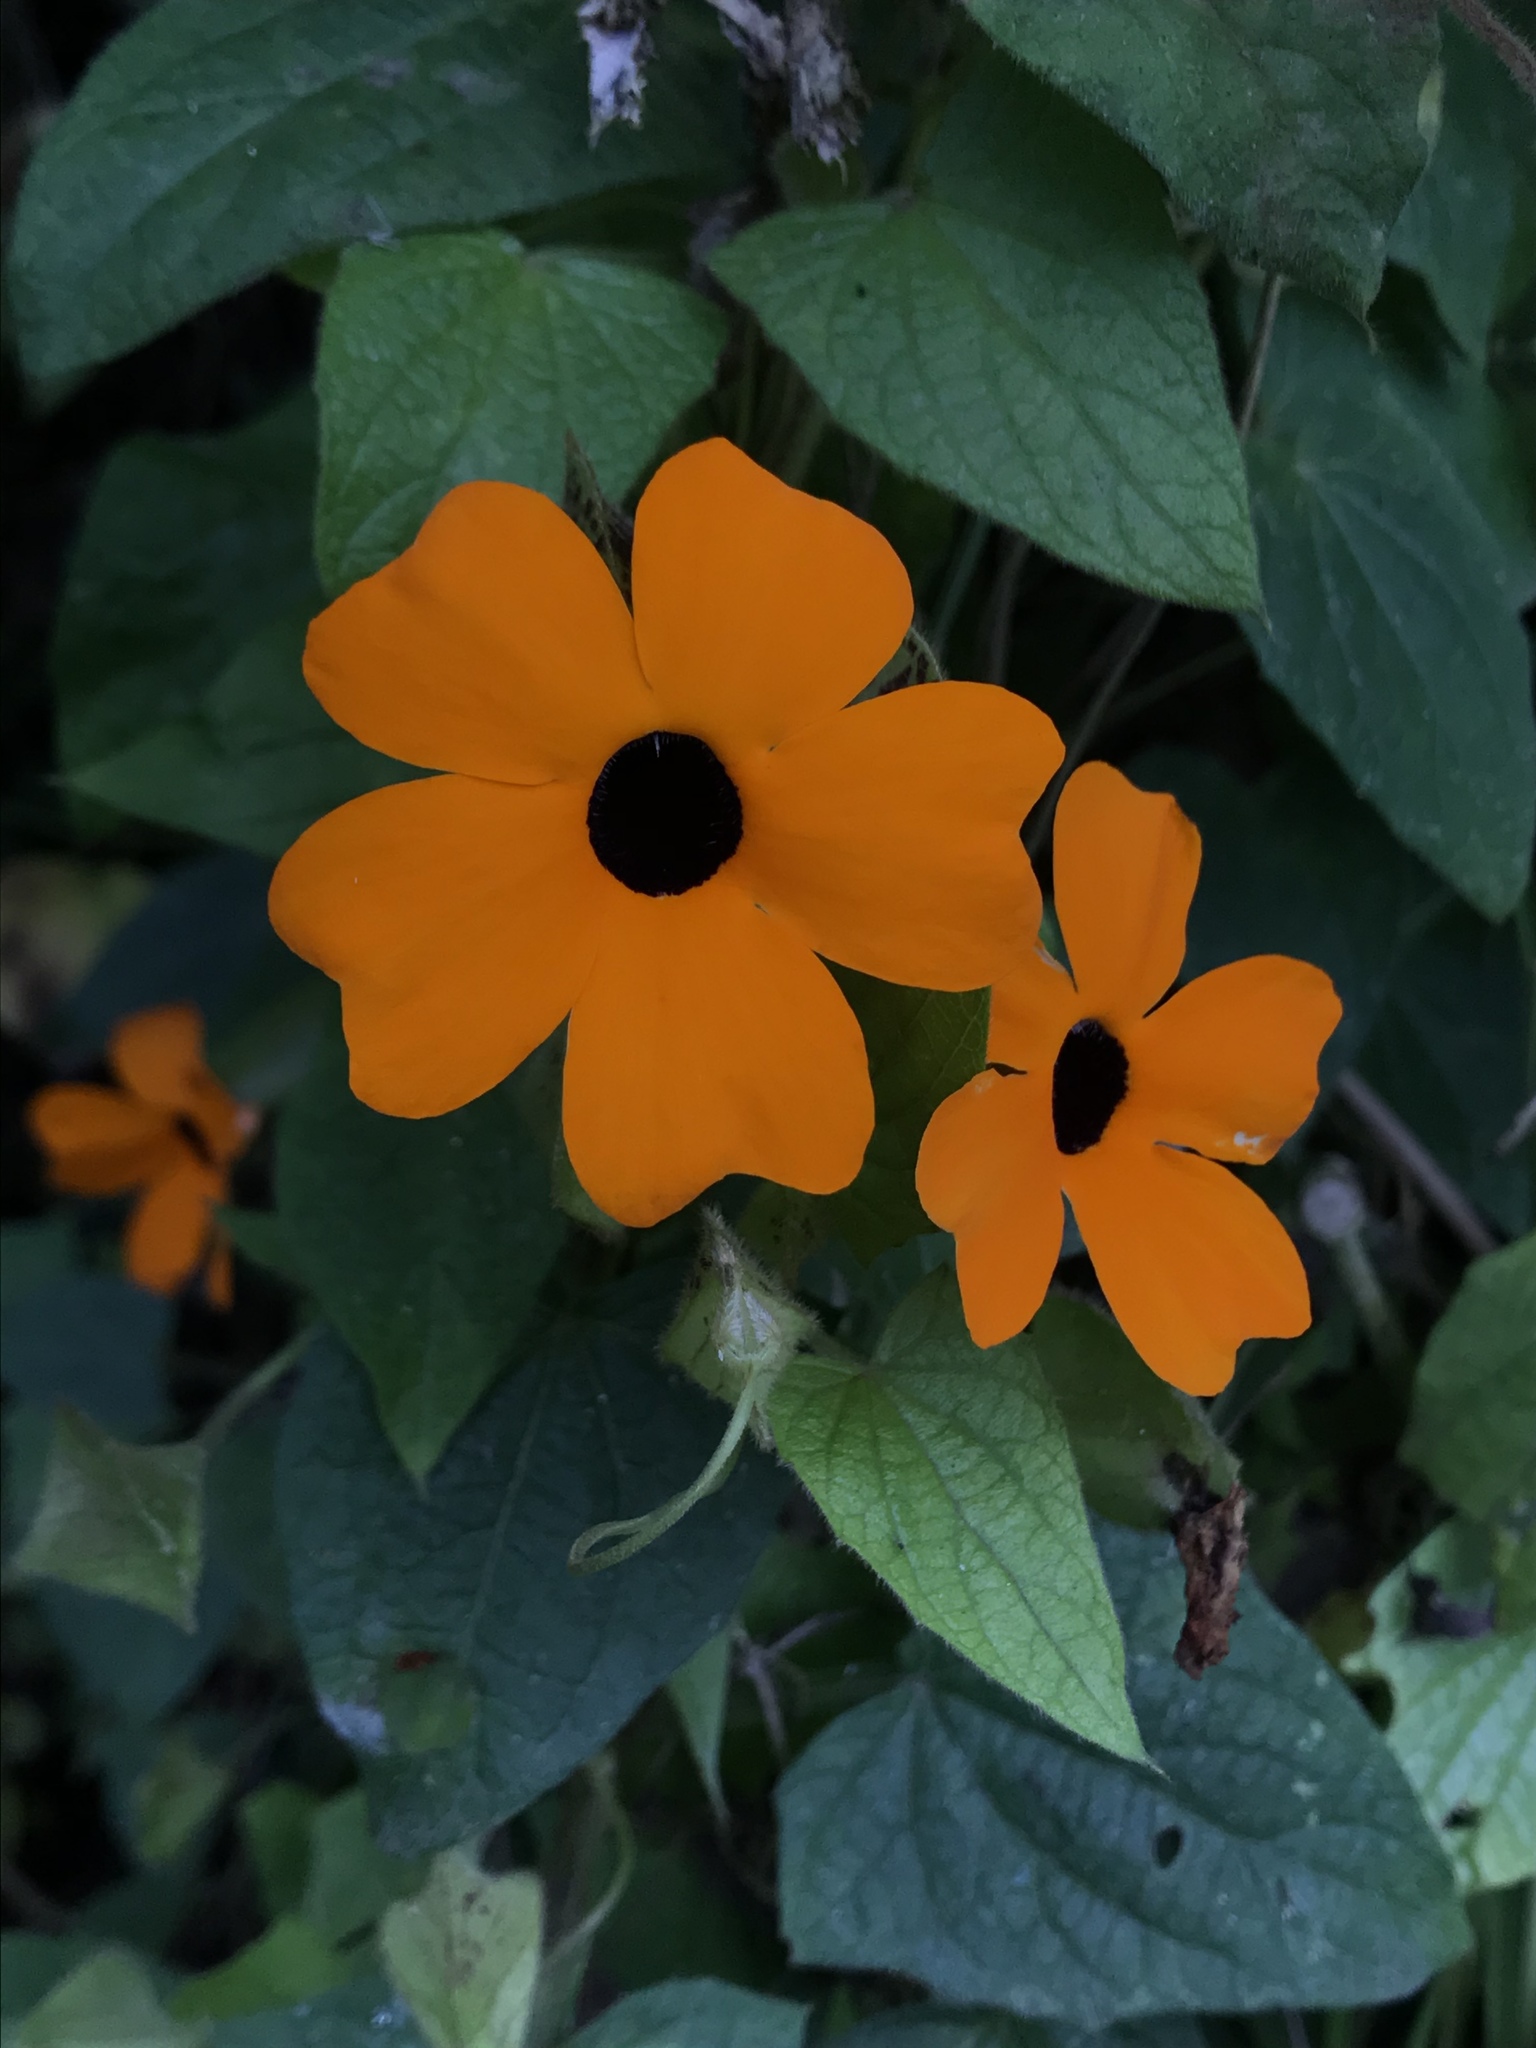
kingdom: Plantae
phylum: Tracheophyta
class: Magnoliopsida
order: Lamiales
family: Acanthaceae
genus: Thunbergia
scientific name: Thunbergia alata
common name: Blackeyed susan vine
